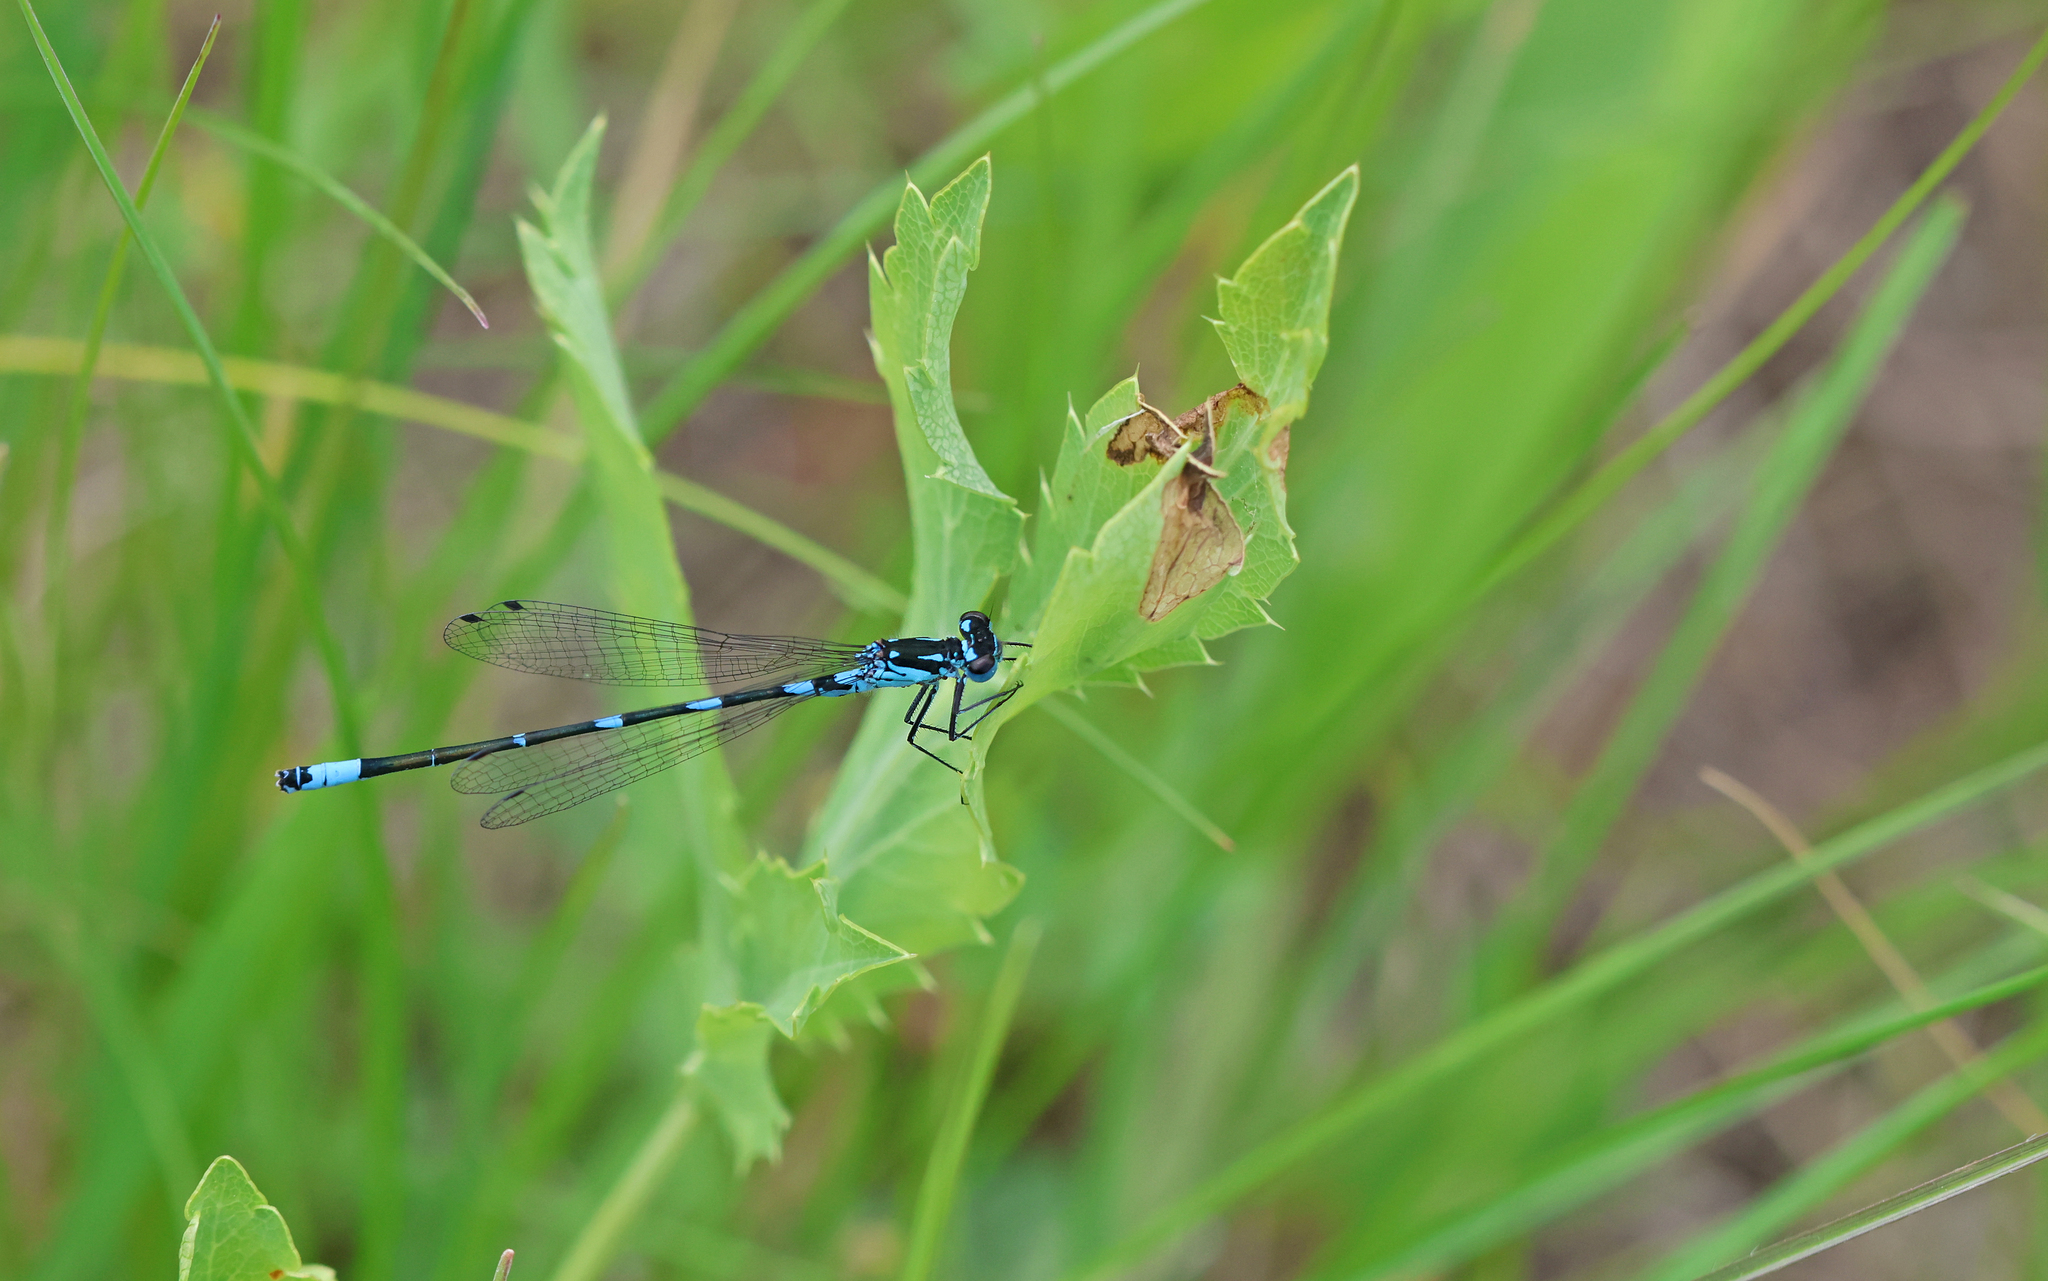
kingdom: Animalia
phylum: Arthropoda
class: Insecta
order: Odonata
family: Coenagrionidae
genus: Coenagrion
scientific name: Coenagrion pulchellum
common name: Variable bluet
